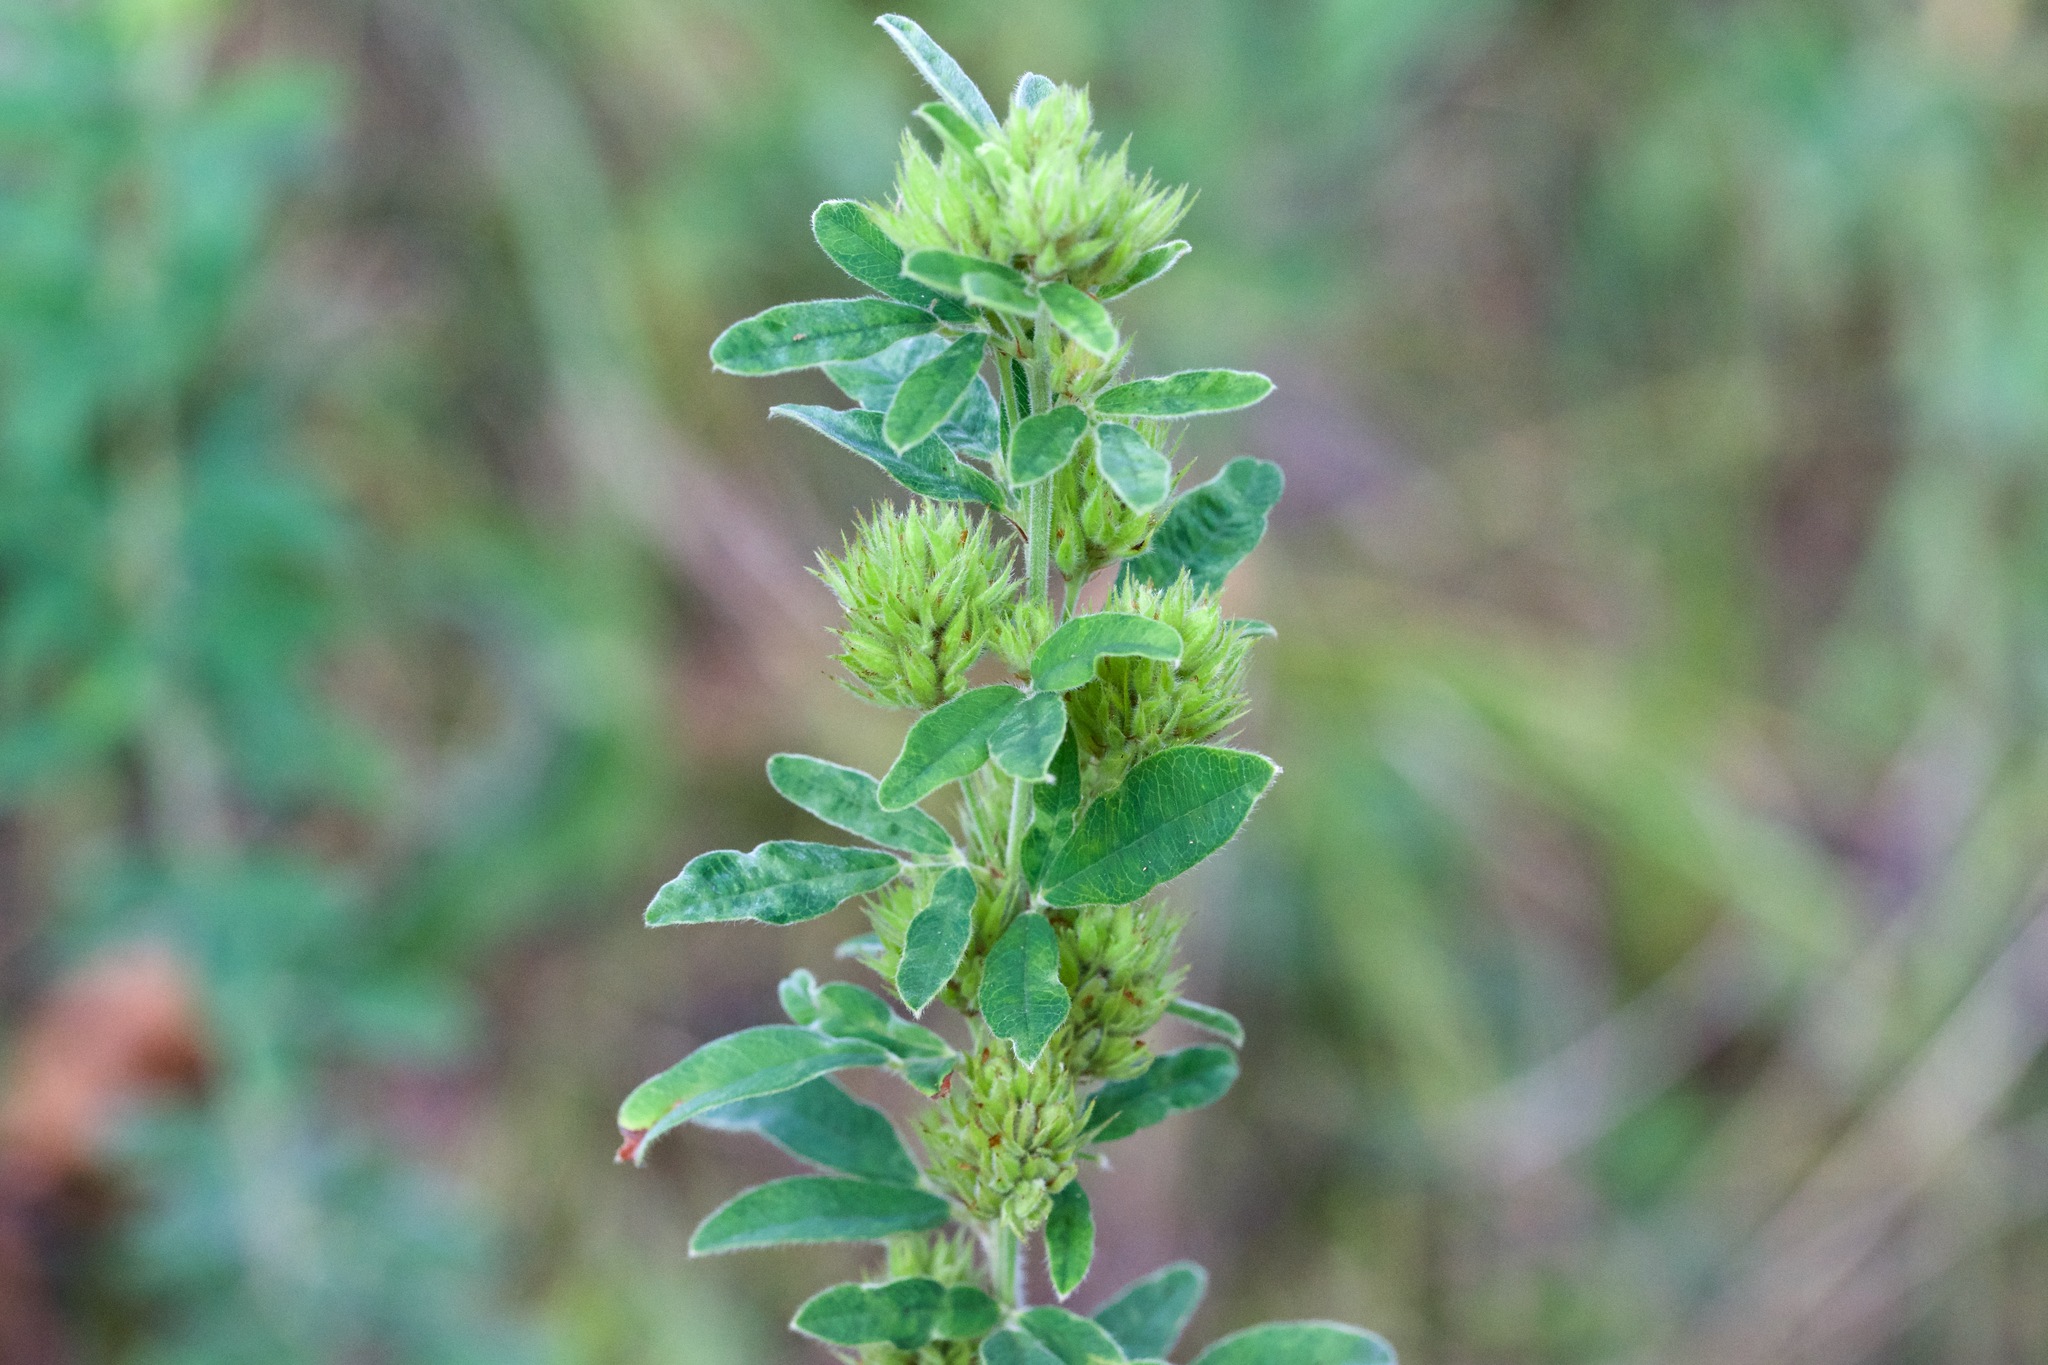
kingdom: Plantae
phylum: Tracheophyta
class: Magnoliopsida
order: Fabales
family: Fabaceae
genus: Lespedeza
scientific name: Lespedeza capitata
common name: Dusty clover
